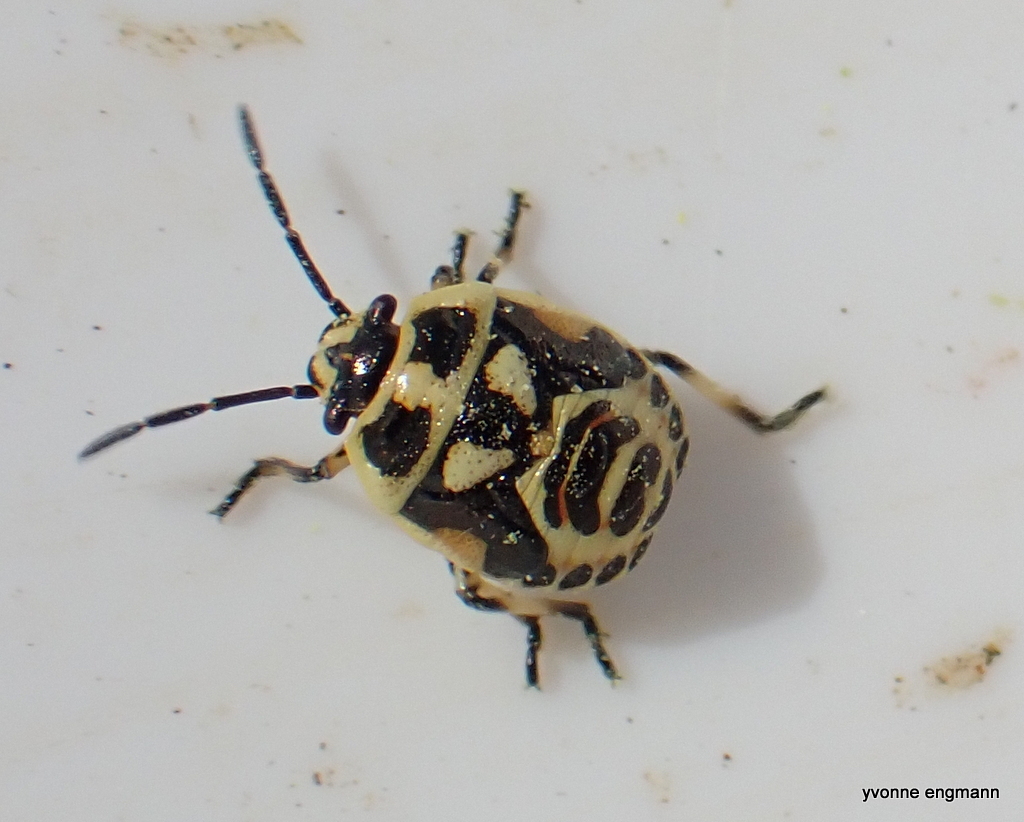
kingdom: Animalia
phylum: Arthropoda
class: Insecta
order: Hemiptera
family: Pentatomidae
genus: Eurydema
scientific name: Eurydema oleracea
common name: Cabbage bug
